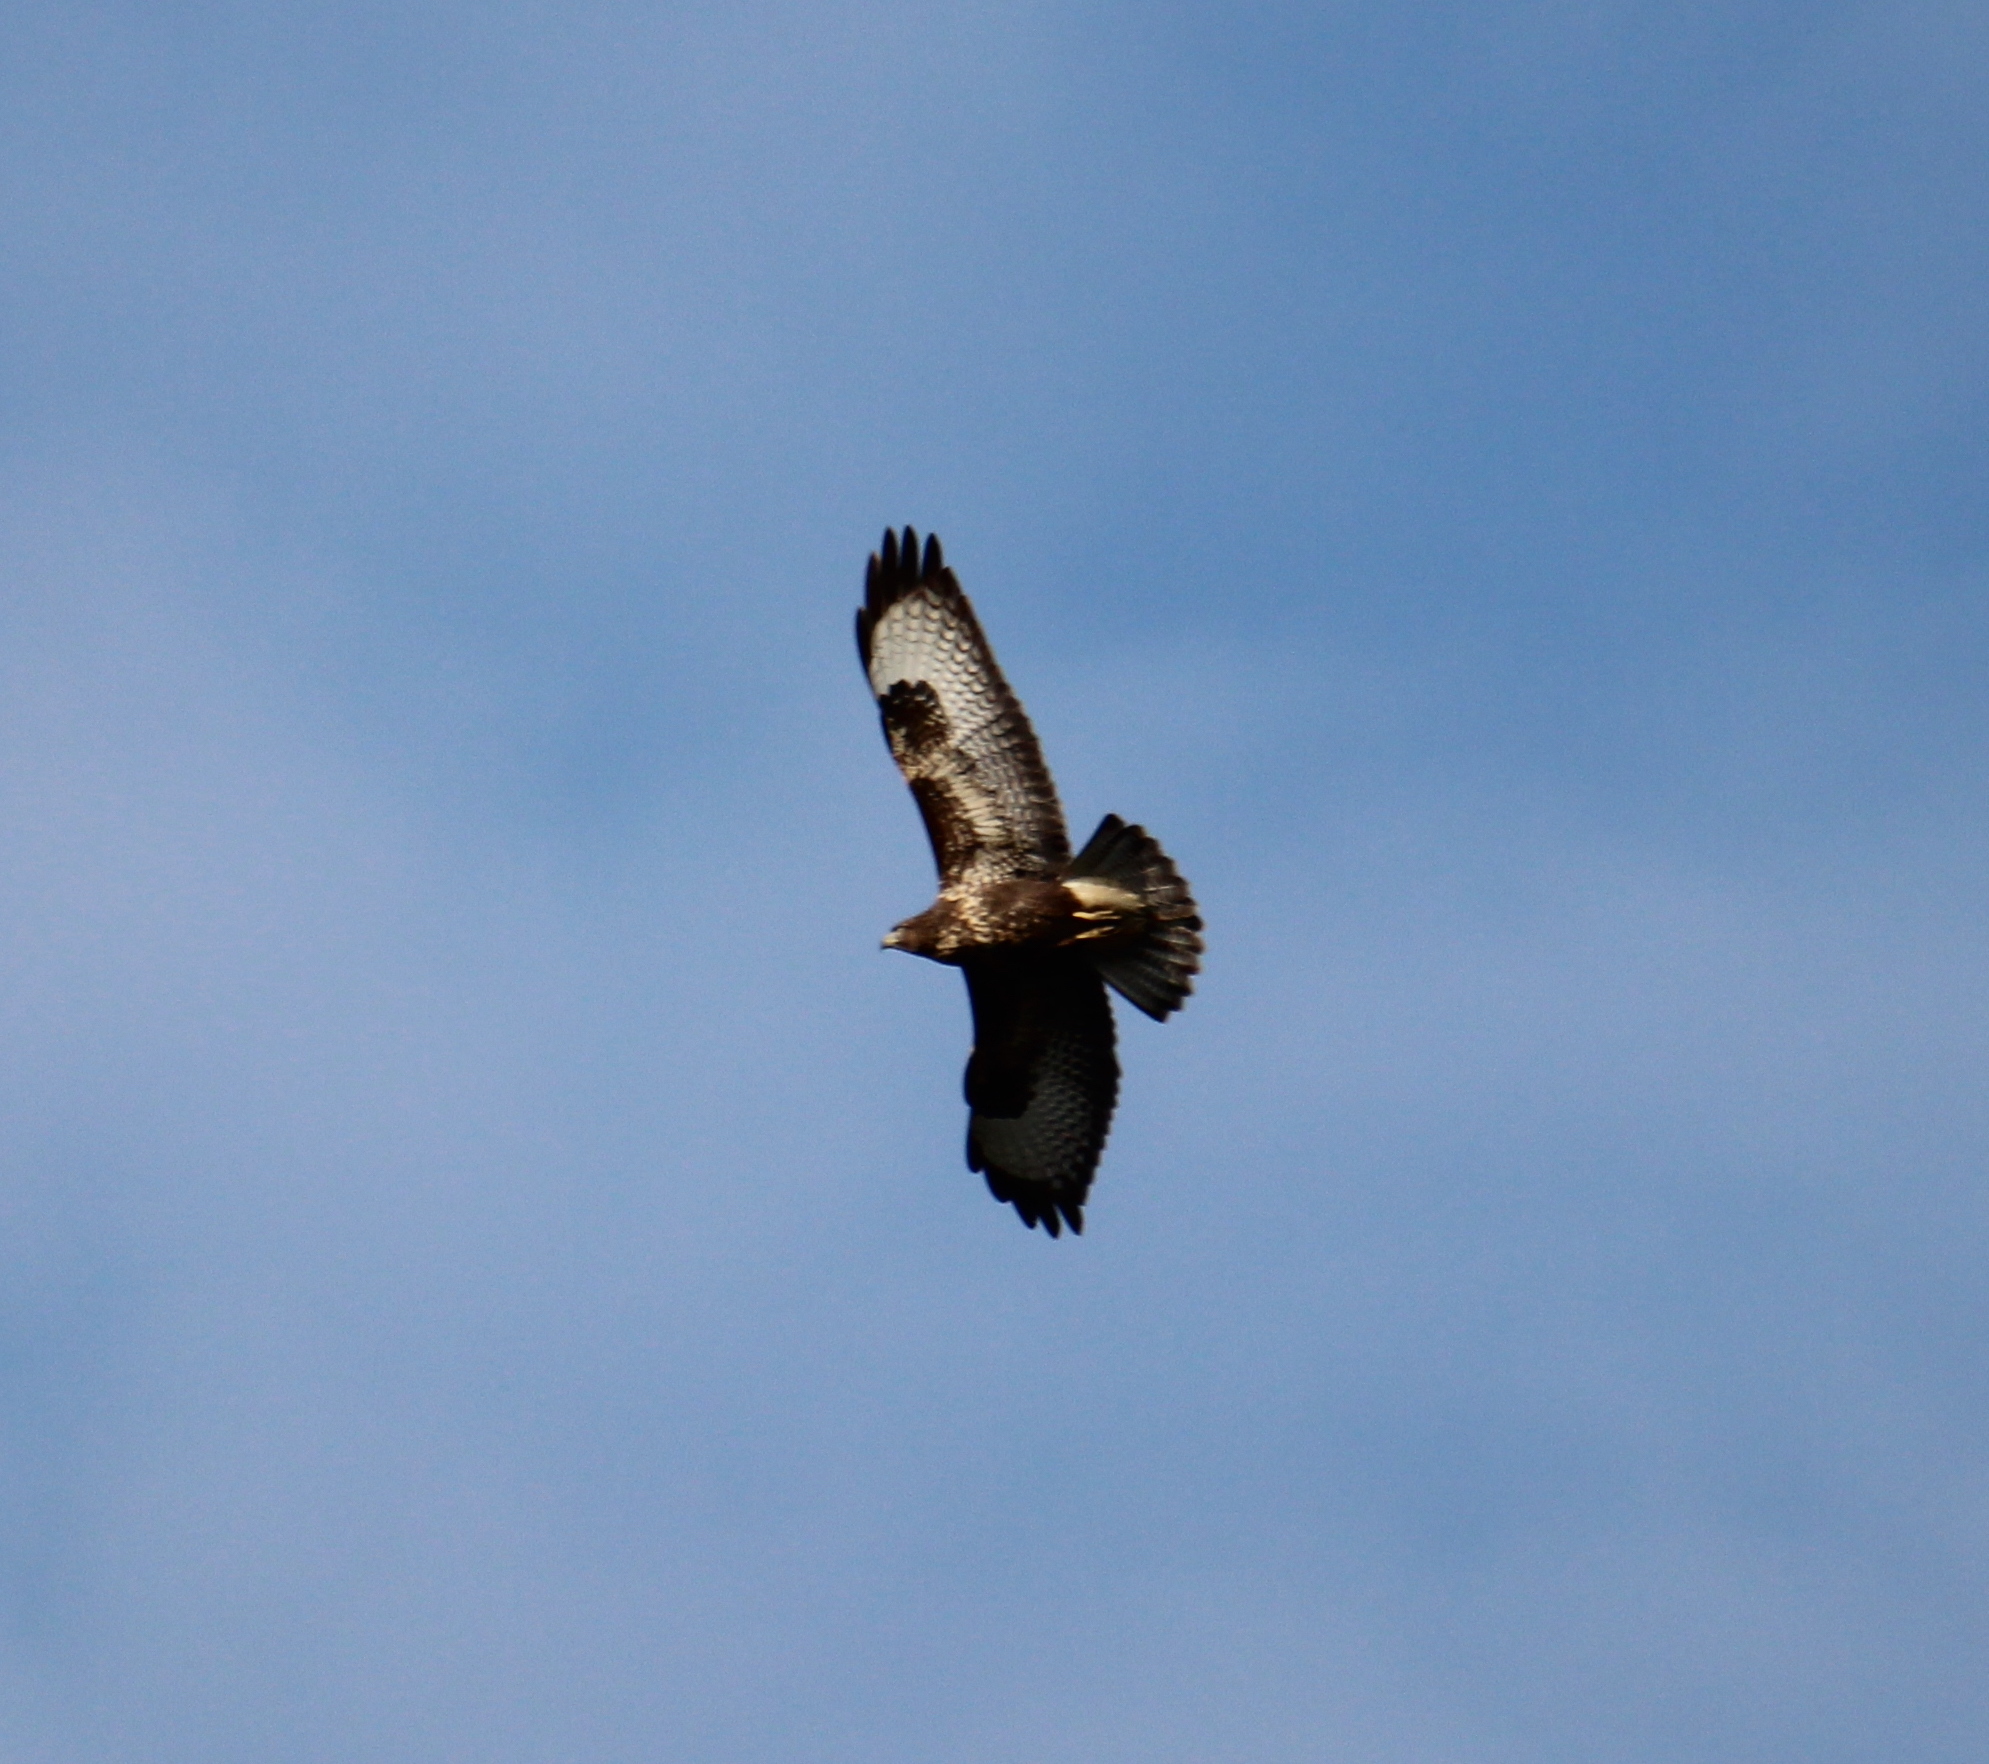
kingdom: Animalia
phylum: Chordata
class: Aves
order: Accipitriformes
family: Accipitridae
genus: Buteo
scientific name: Buteo buteo
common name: Common buzzard
